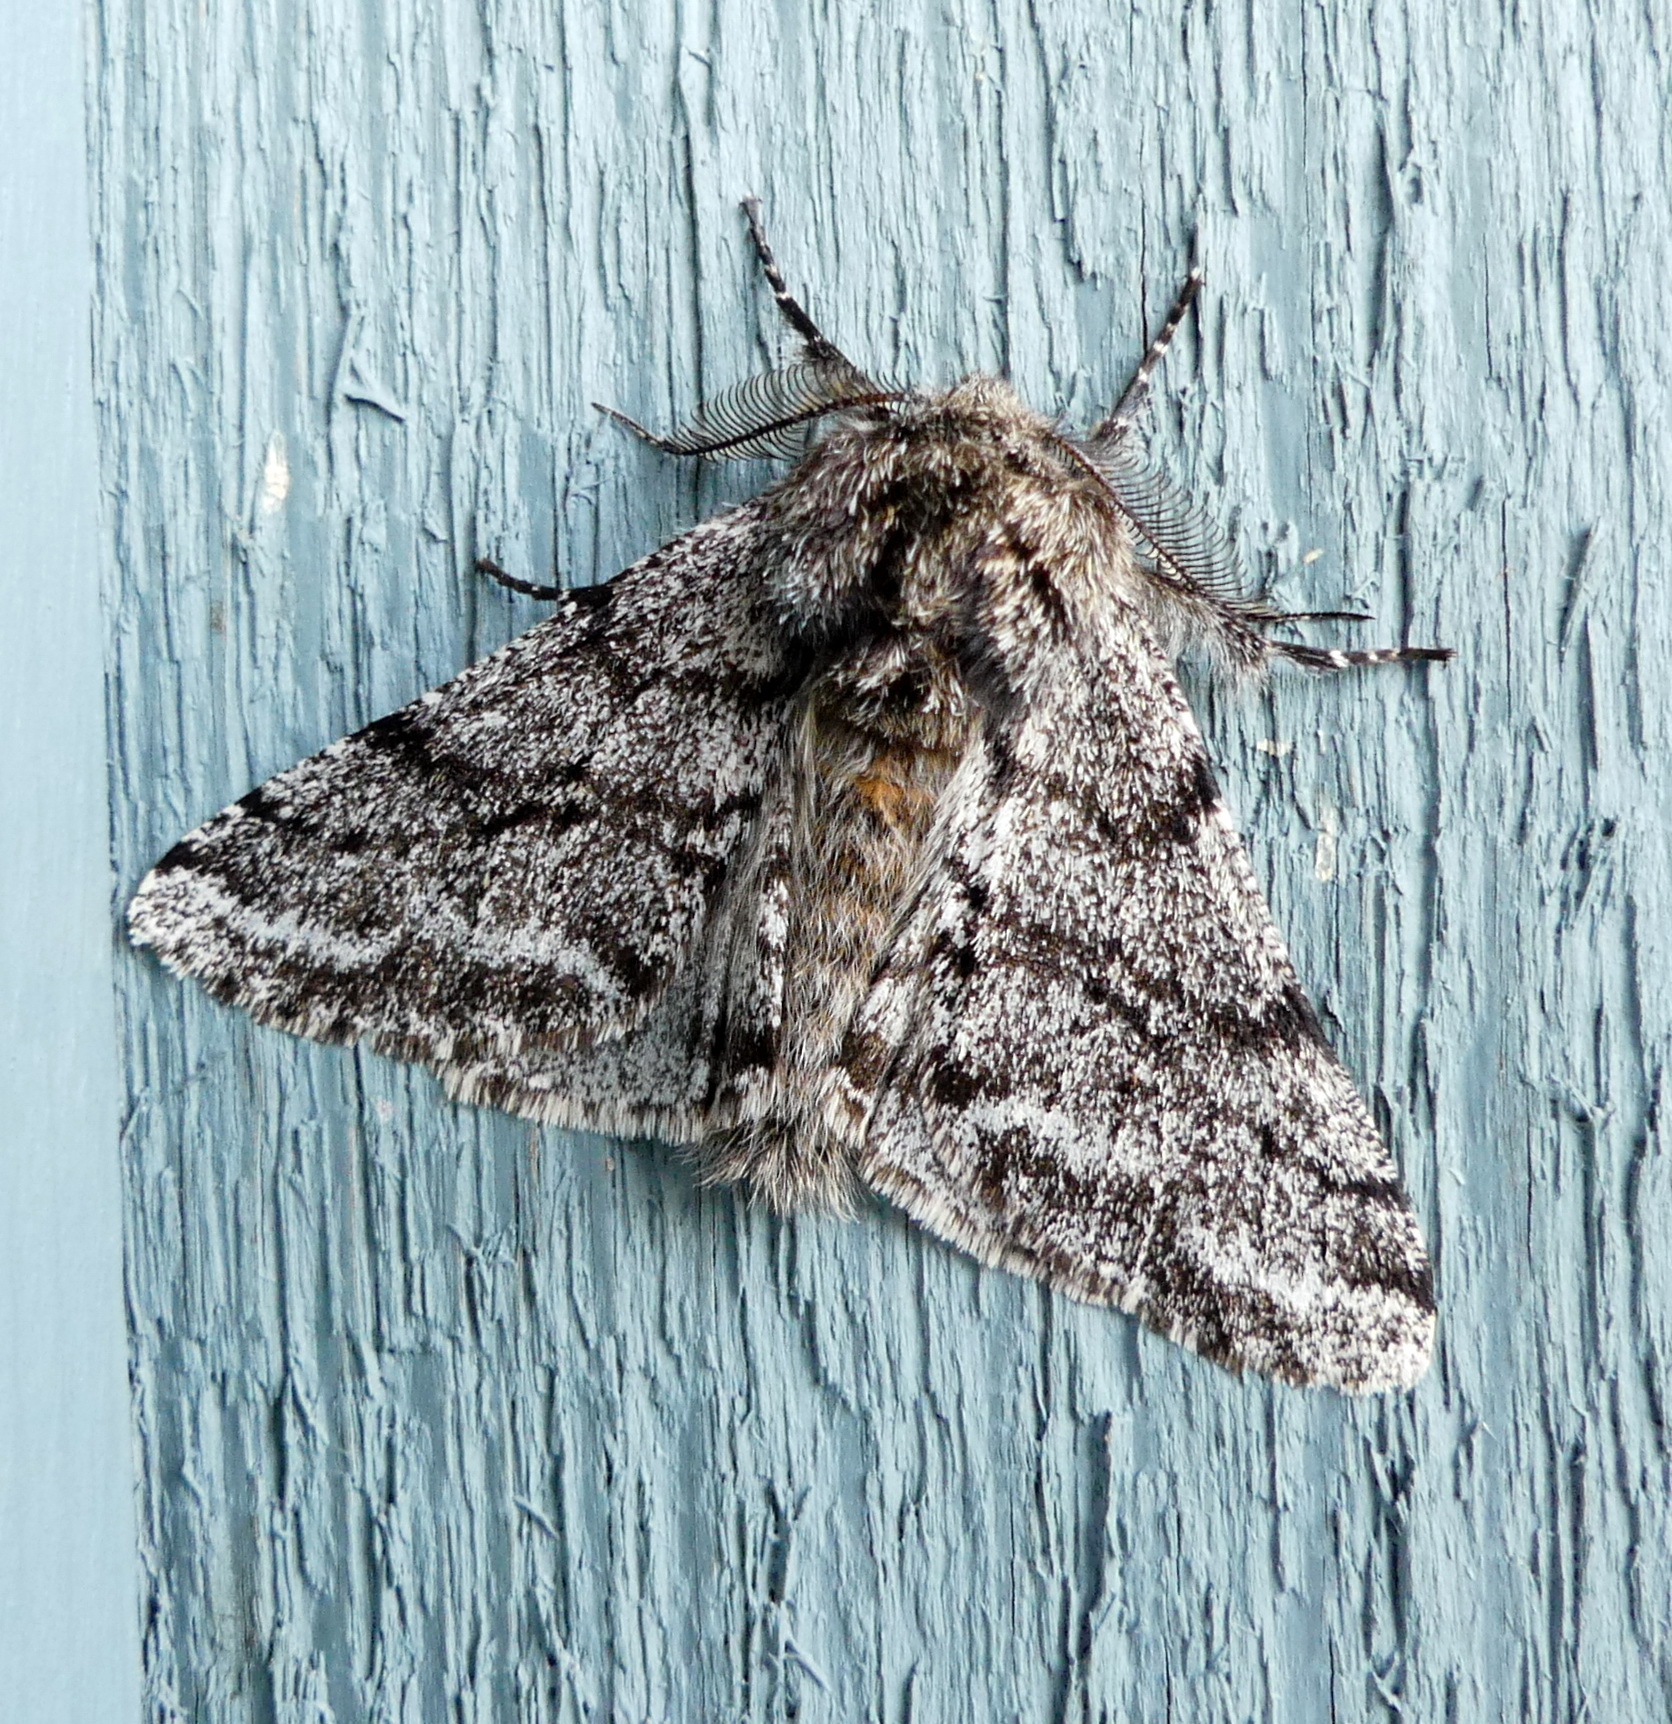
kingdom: Animalia
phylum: Arthropoda
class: Insecta
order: Lepidoptera
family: Geometridae
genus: Lycia
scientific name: Lycia ursaria
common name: Stout spanworm
